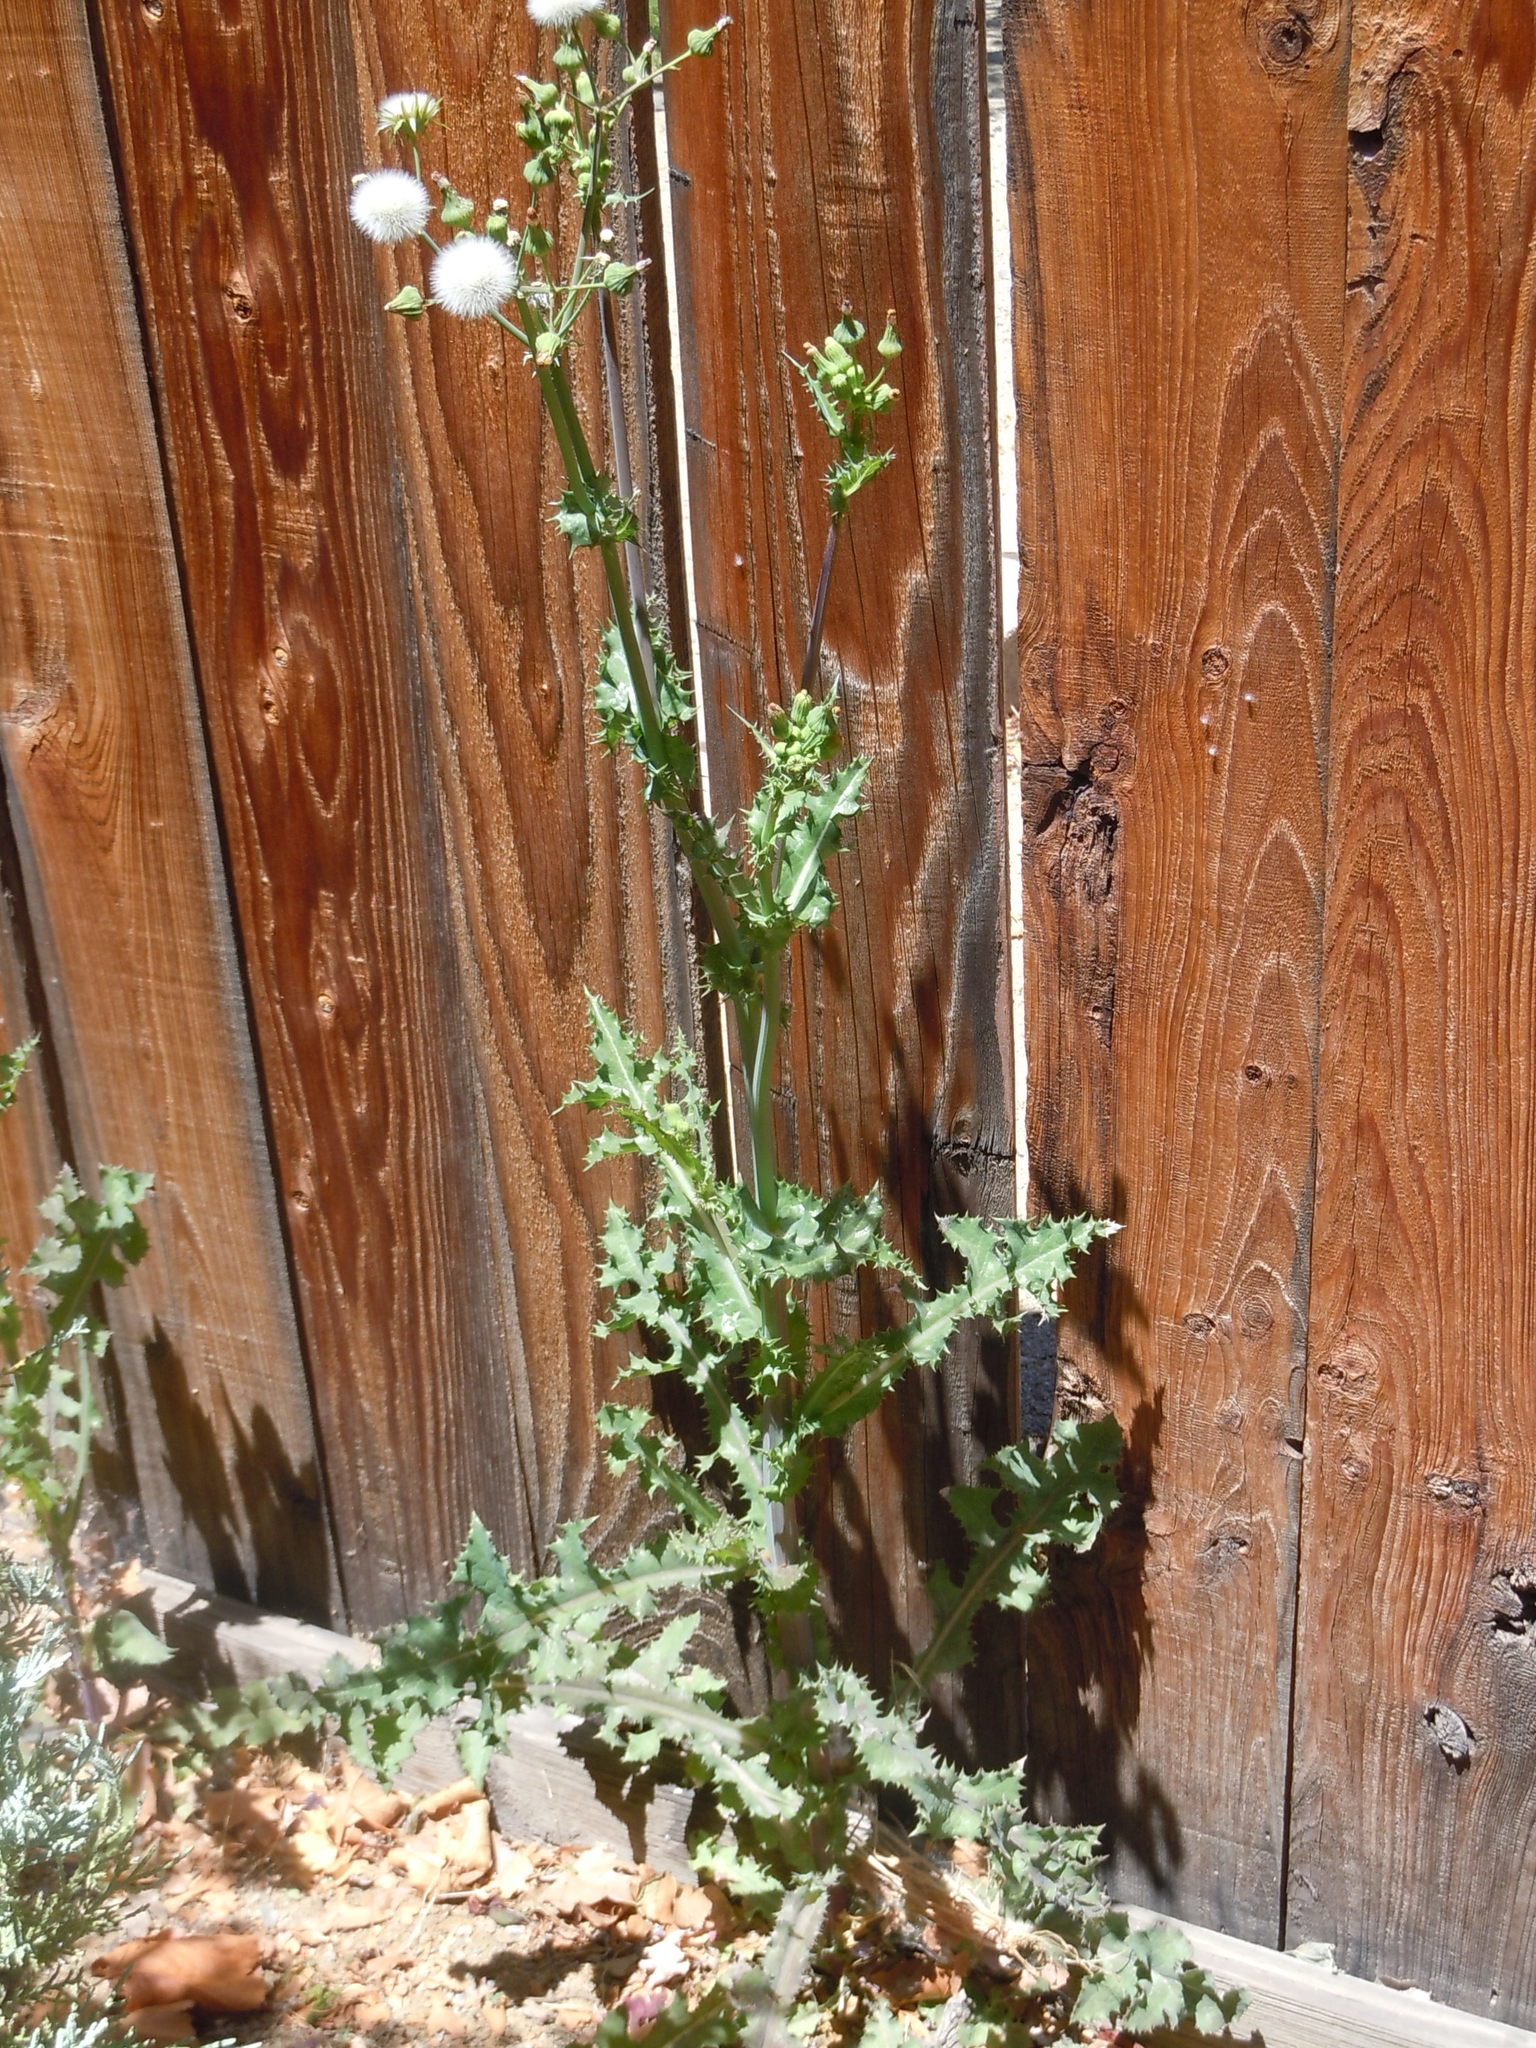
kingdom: Plantae
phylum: Tracheophyta
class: Magnoliopsida
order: Asterales
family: Asteraceae
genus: Sonchus
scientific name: Sonchus oleraceus
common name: Common sowthistle
